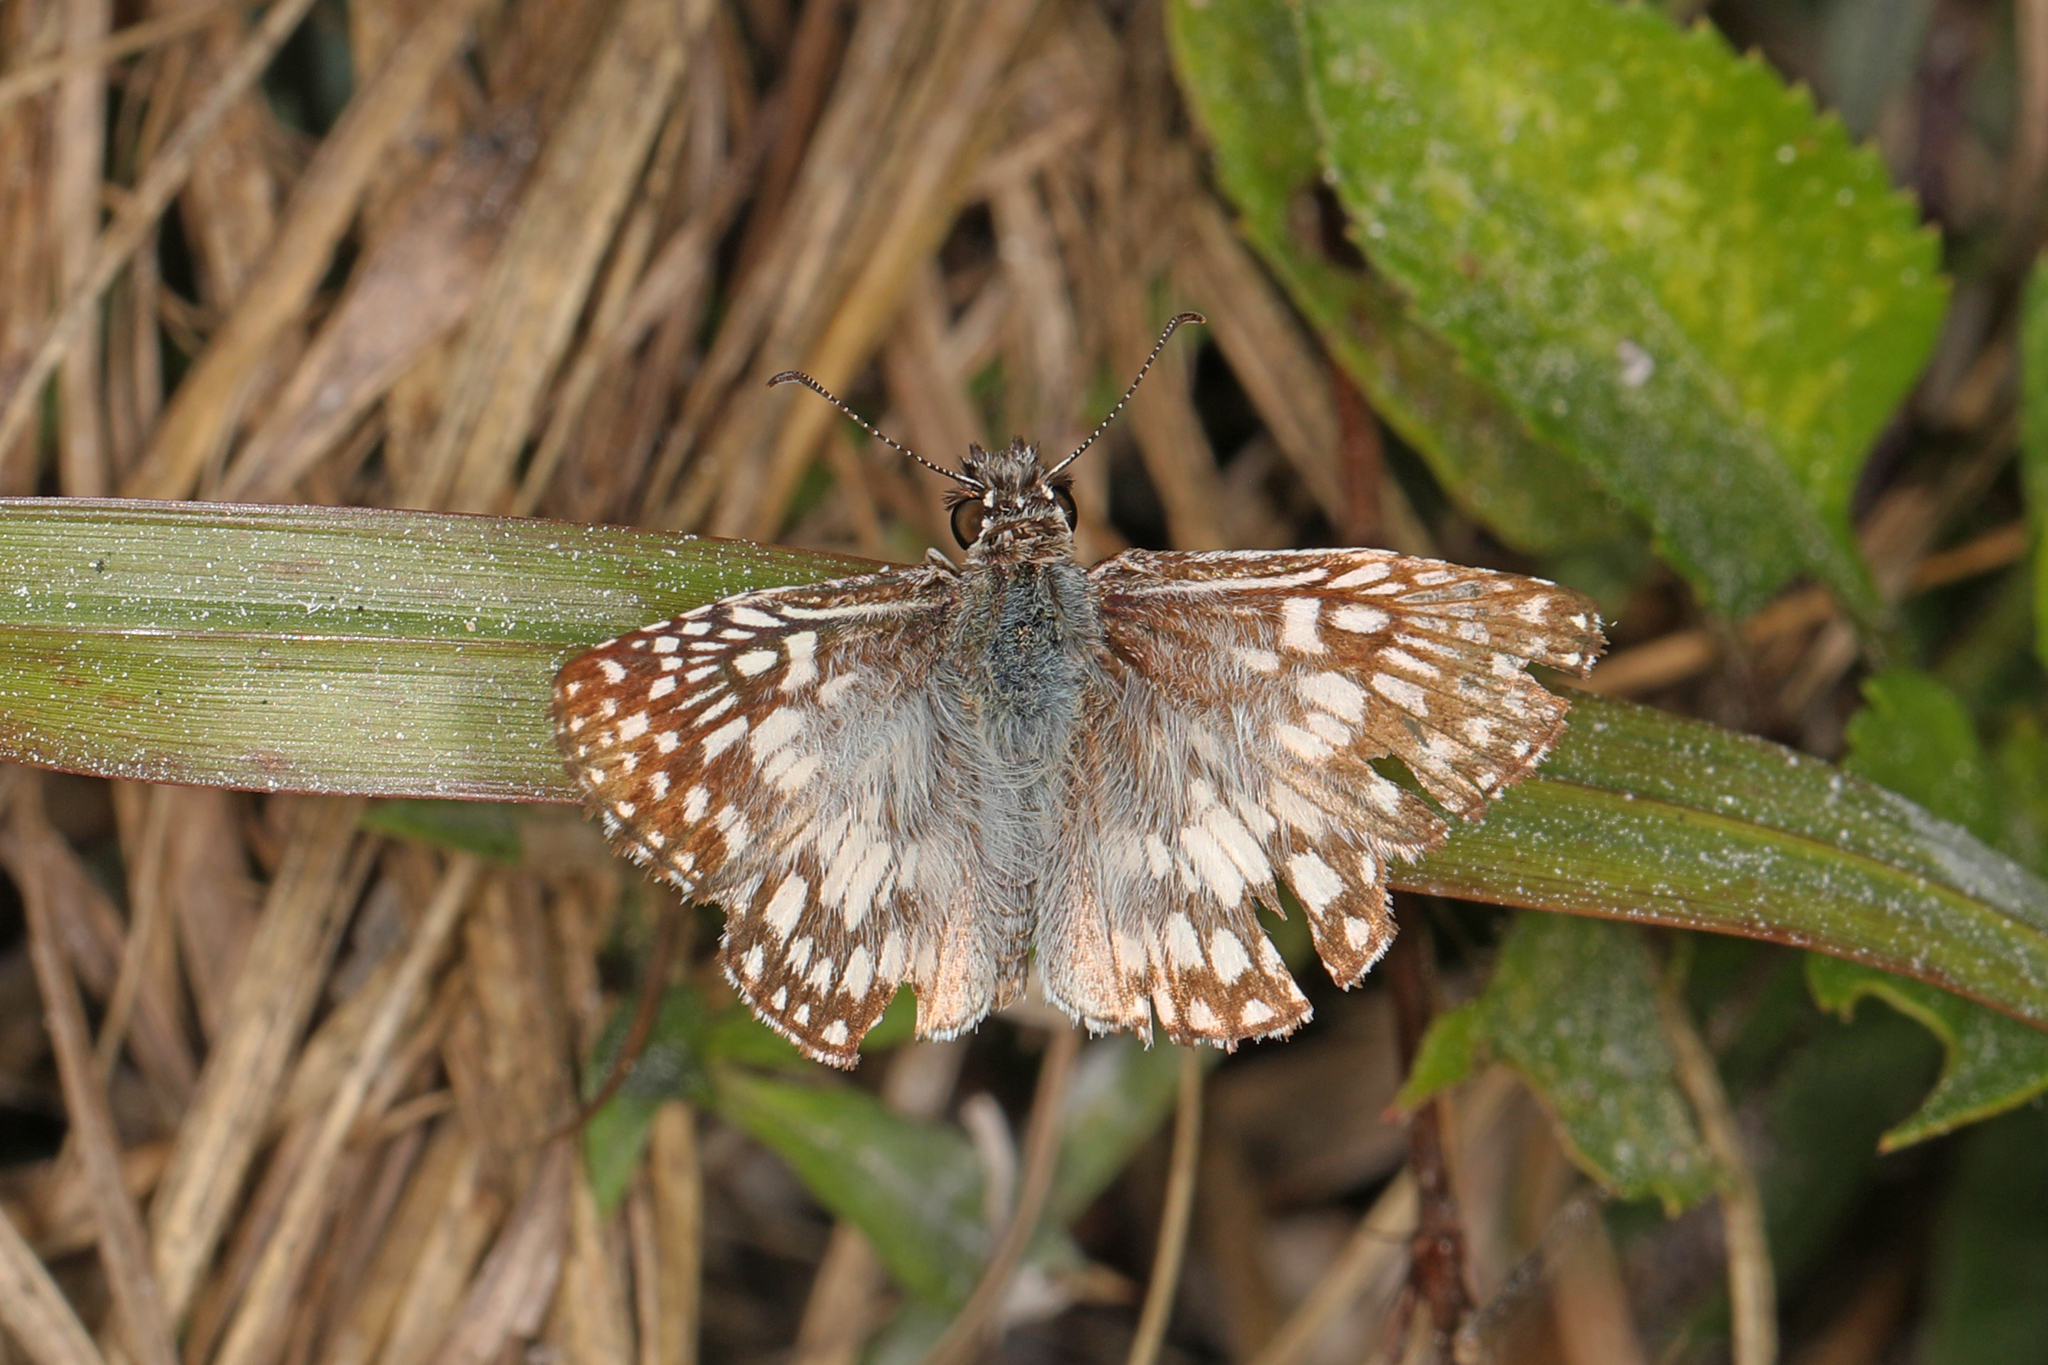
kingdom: Animalia
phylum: Arthropoda
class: Insecta
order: Lepidoptera
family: Hesperiidae
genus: Pyrgus
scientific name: Pyrgus oileus
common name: Tropical checkered-skipper
